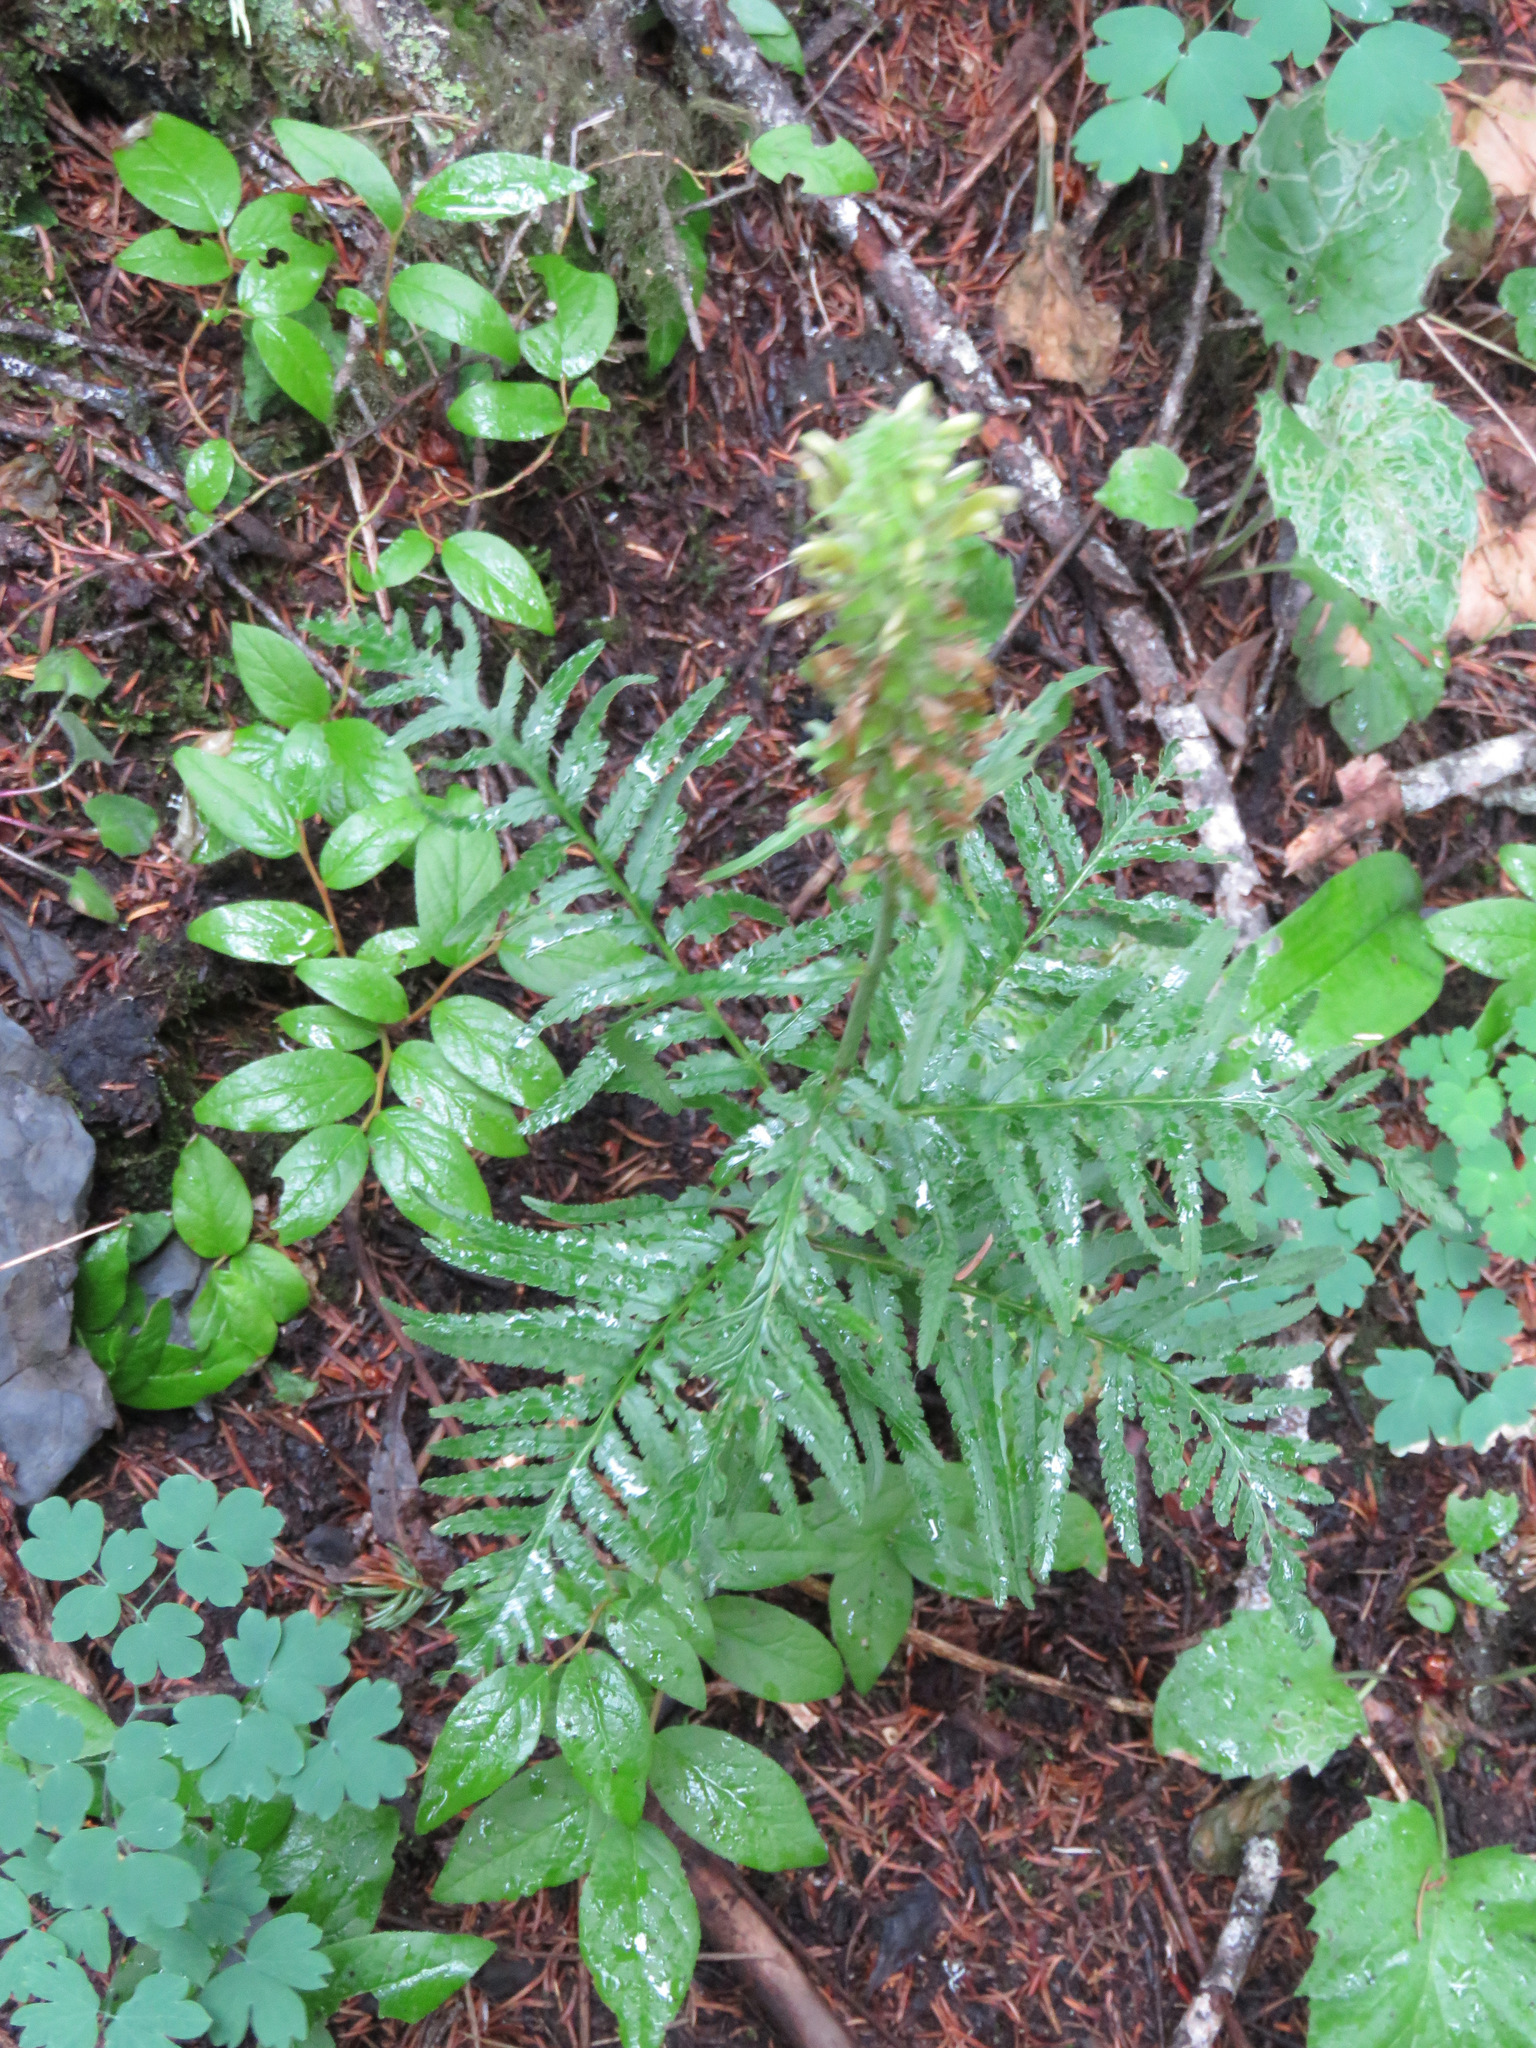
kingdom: Plantae
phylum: Tracheophyta
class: Magnoliopsida
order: Lamiales
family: Orobanchaceae
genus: Pedicularis
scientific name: Pedicularis bracteosa
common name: Bracted lousewort
